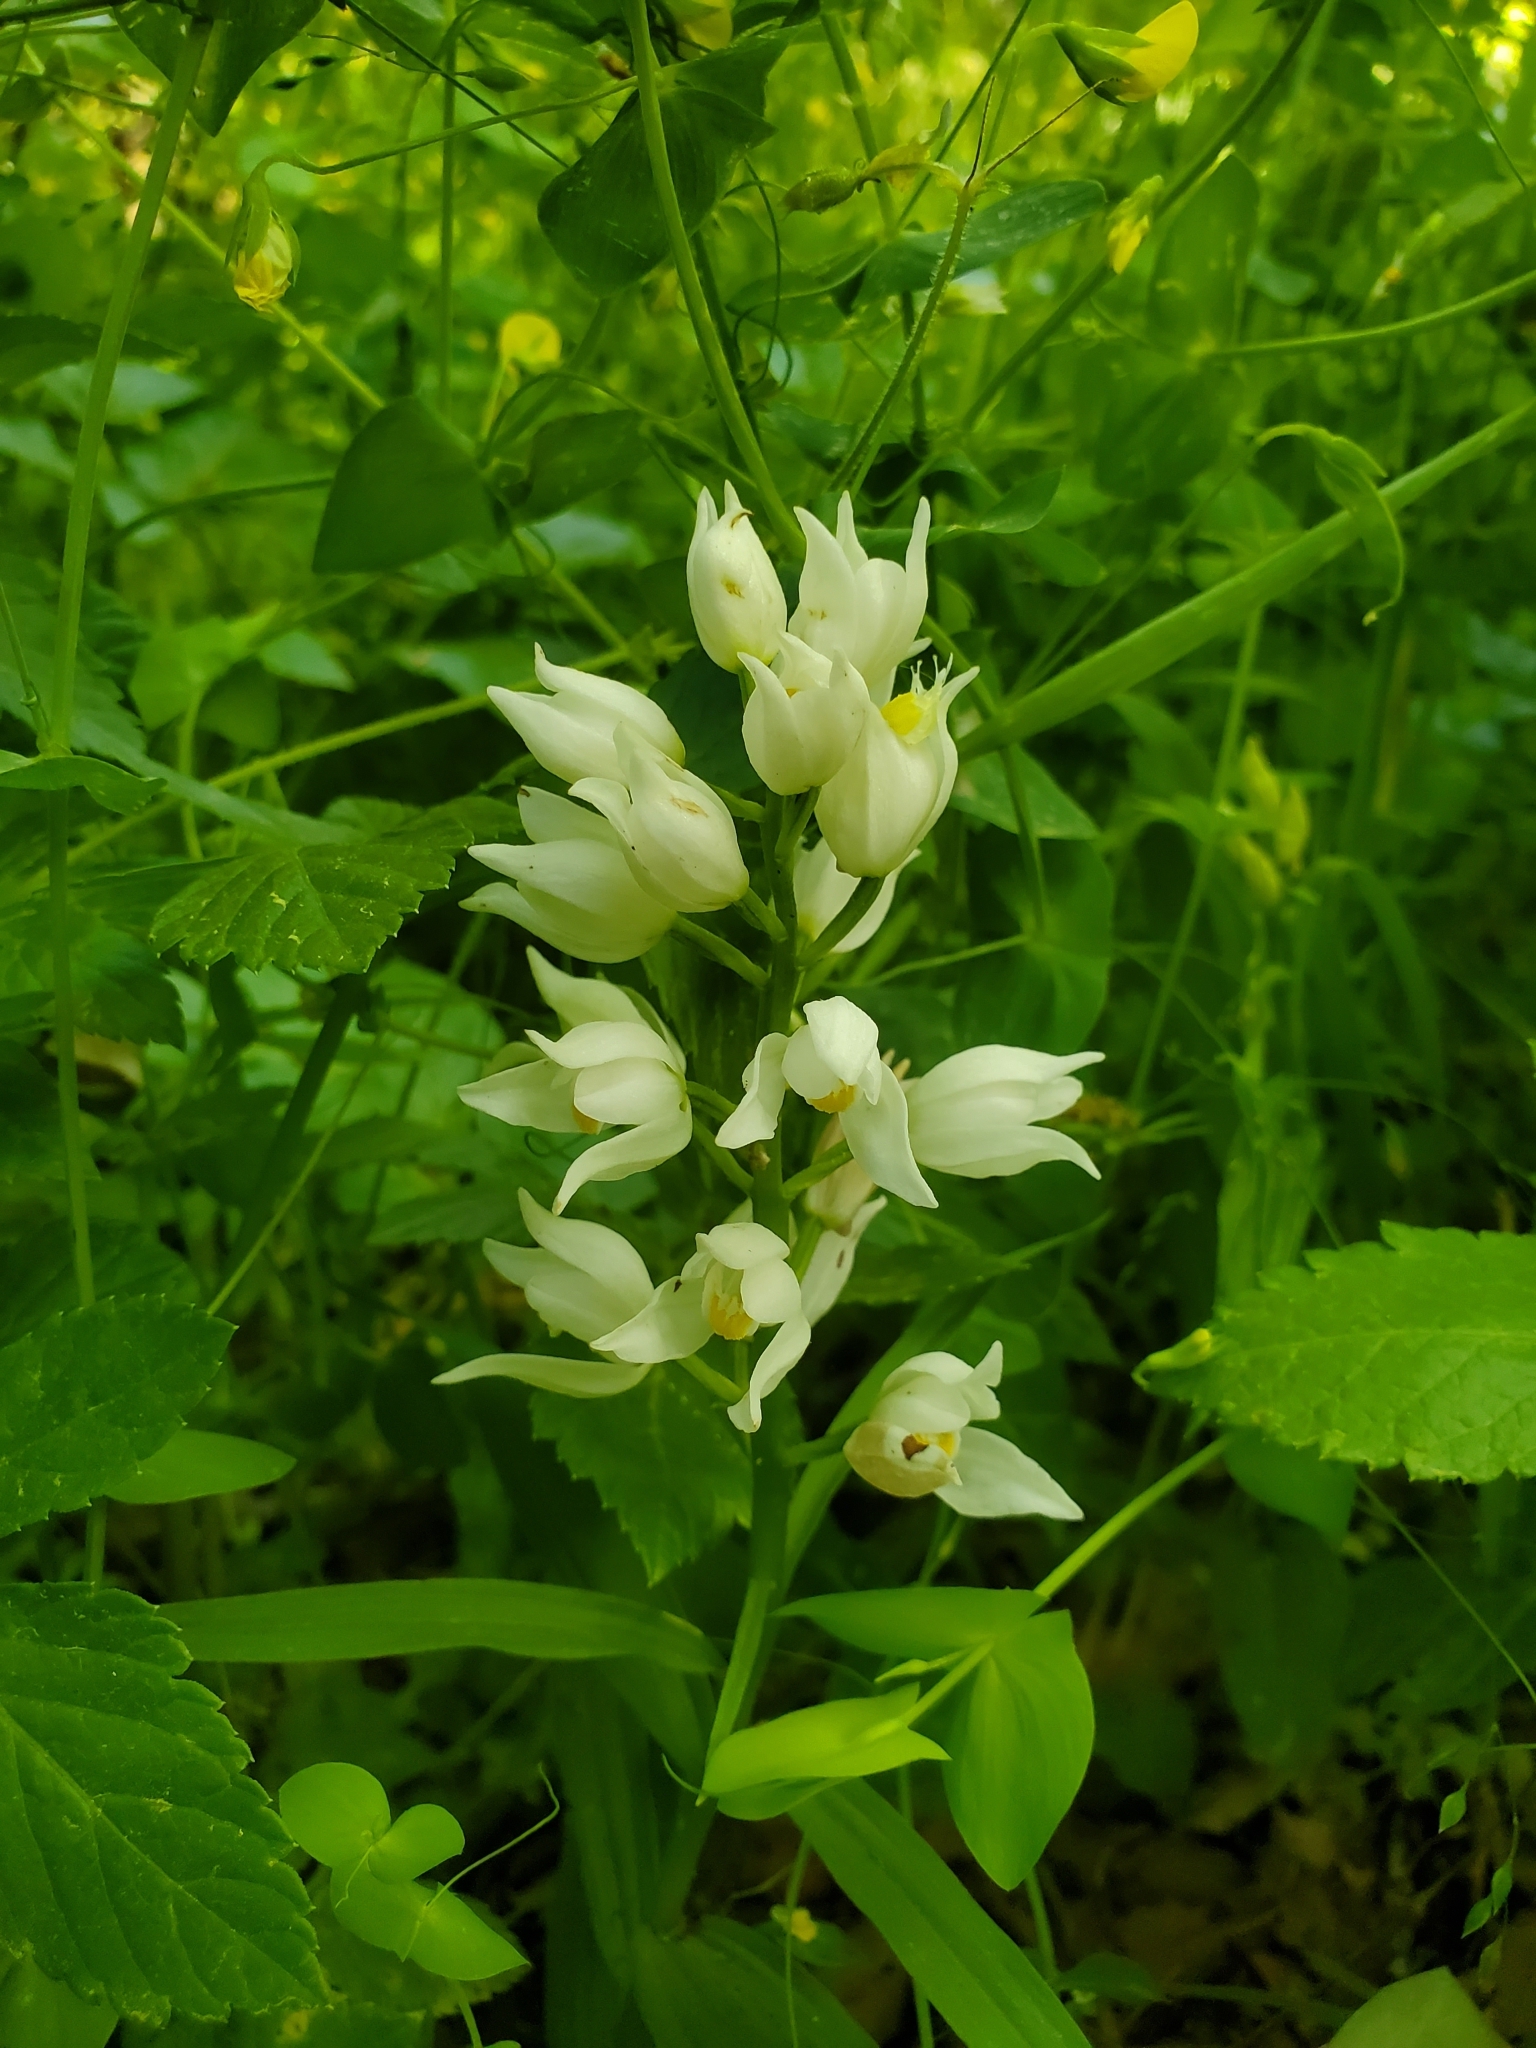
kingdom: Plantae
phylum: Tracheophyta
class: Liliopsida
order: Asparagales
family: Orchidaceae
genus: Cephalanthera
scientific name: Cephalanthera longifolia
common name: Narrow-leaved helleborine
